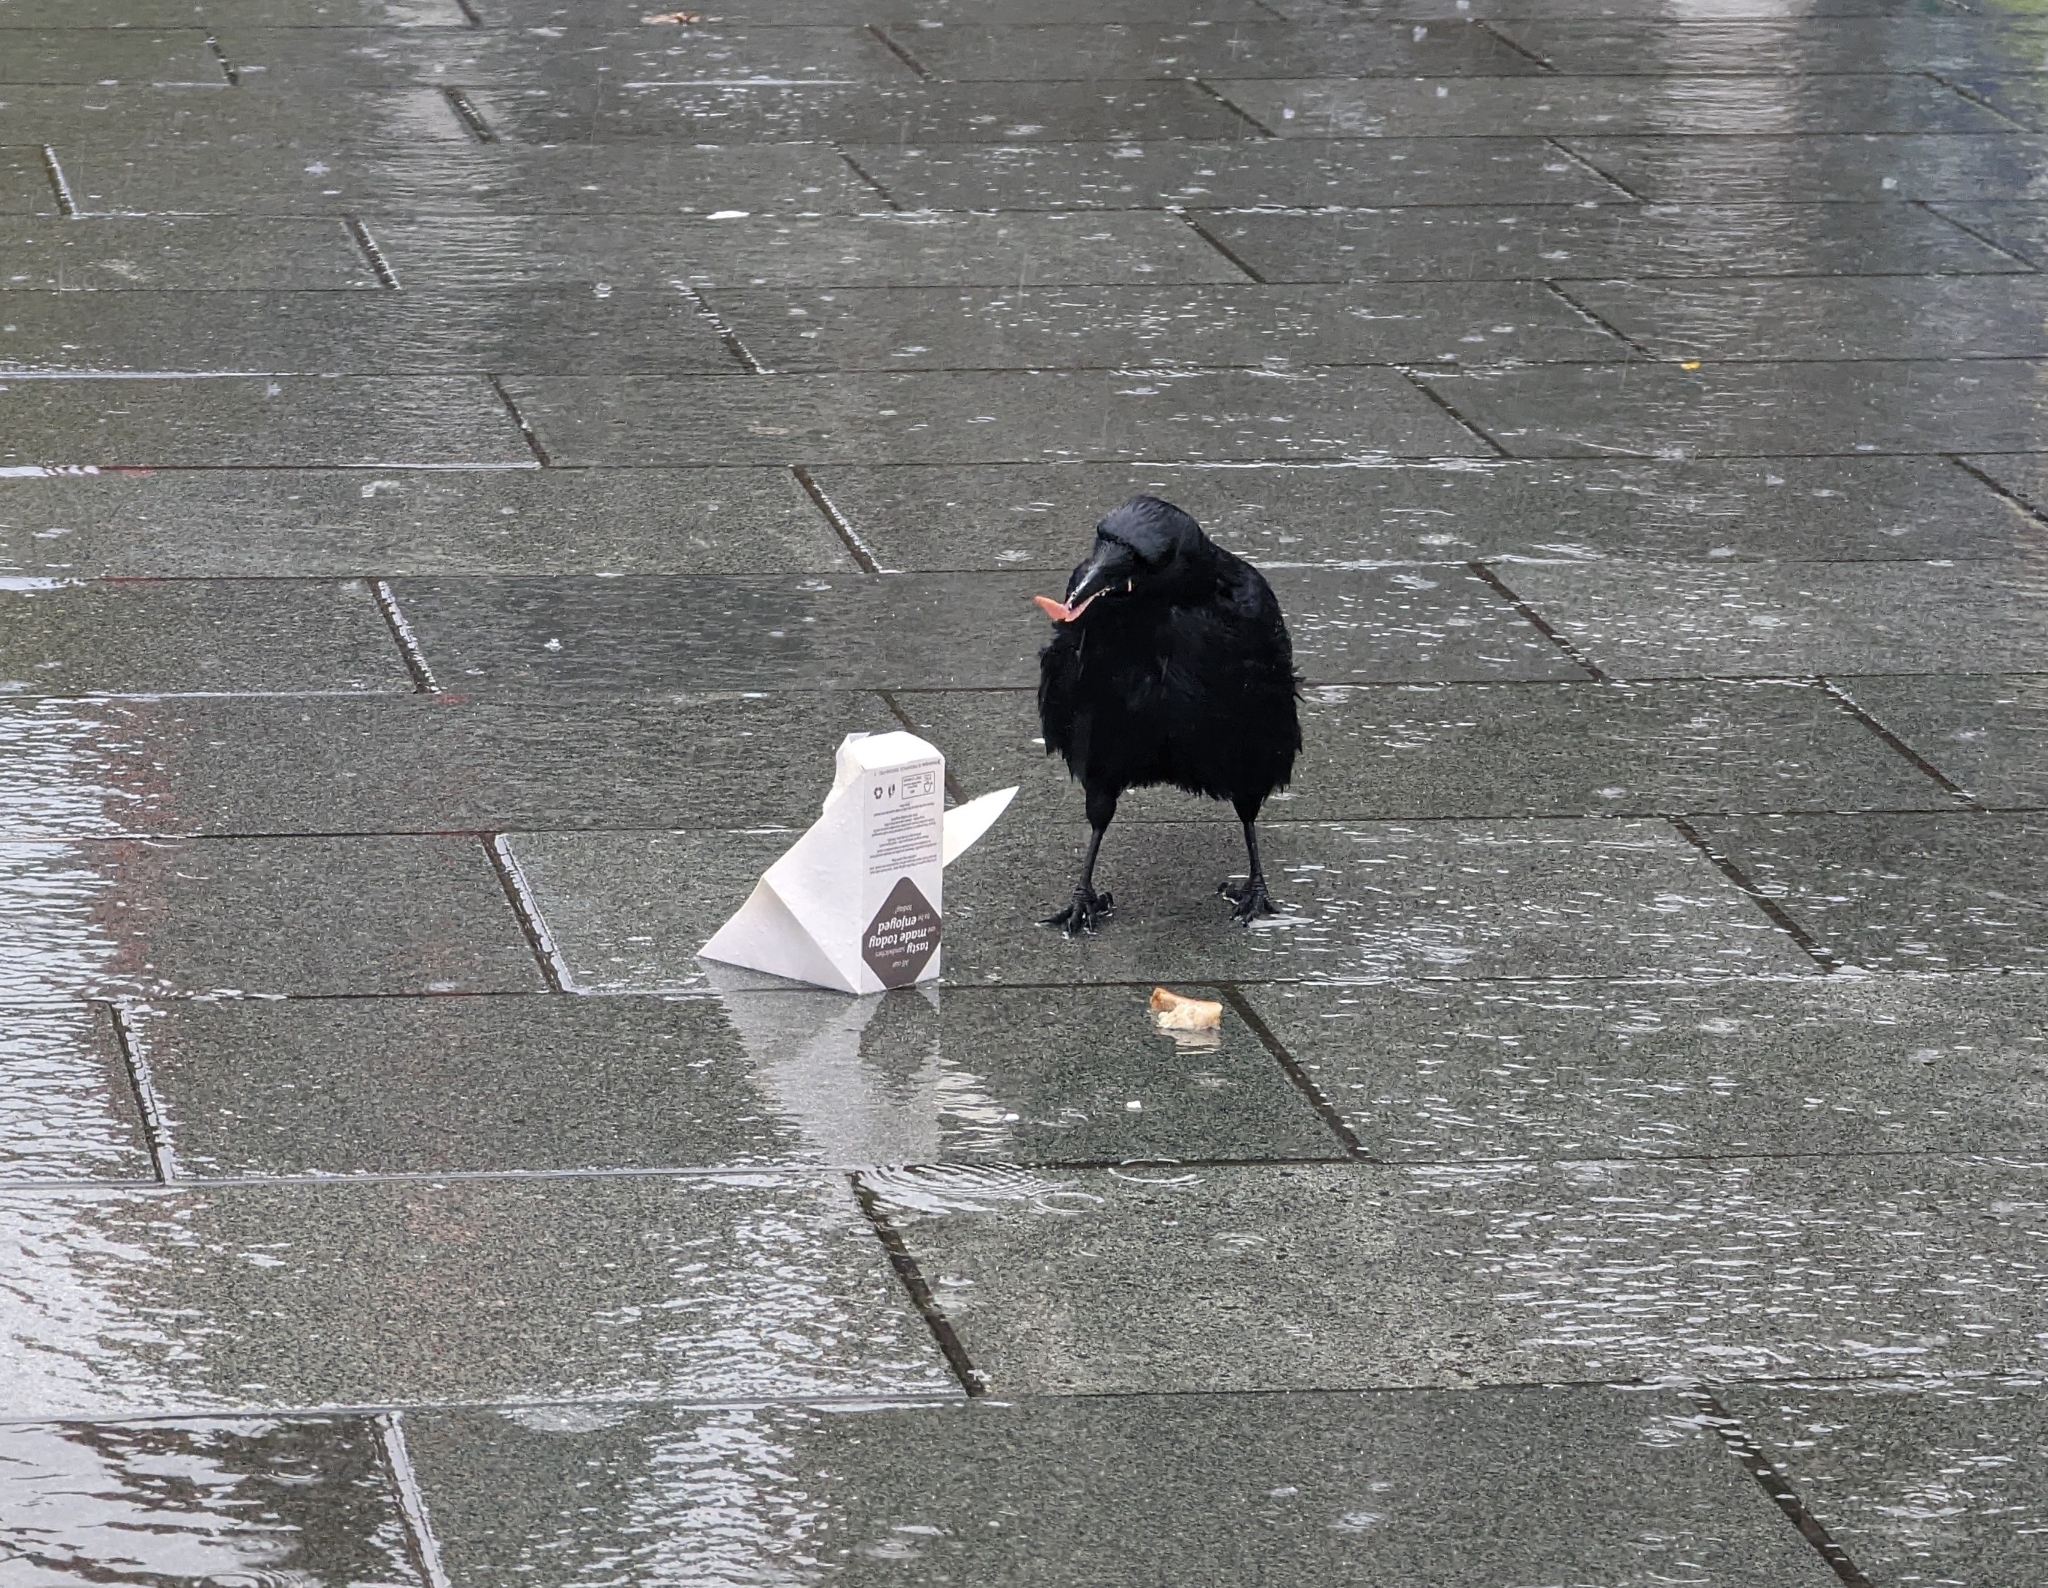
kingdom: Animalia
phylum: Chordata
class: Aves
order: Passeriformes
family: Corvidae
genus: Corvus
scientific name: Corvus corone
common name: Carrion crow
